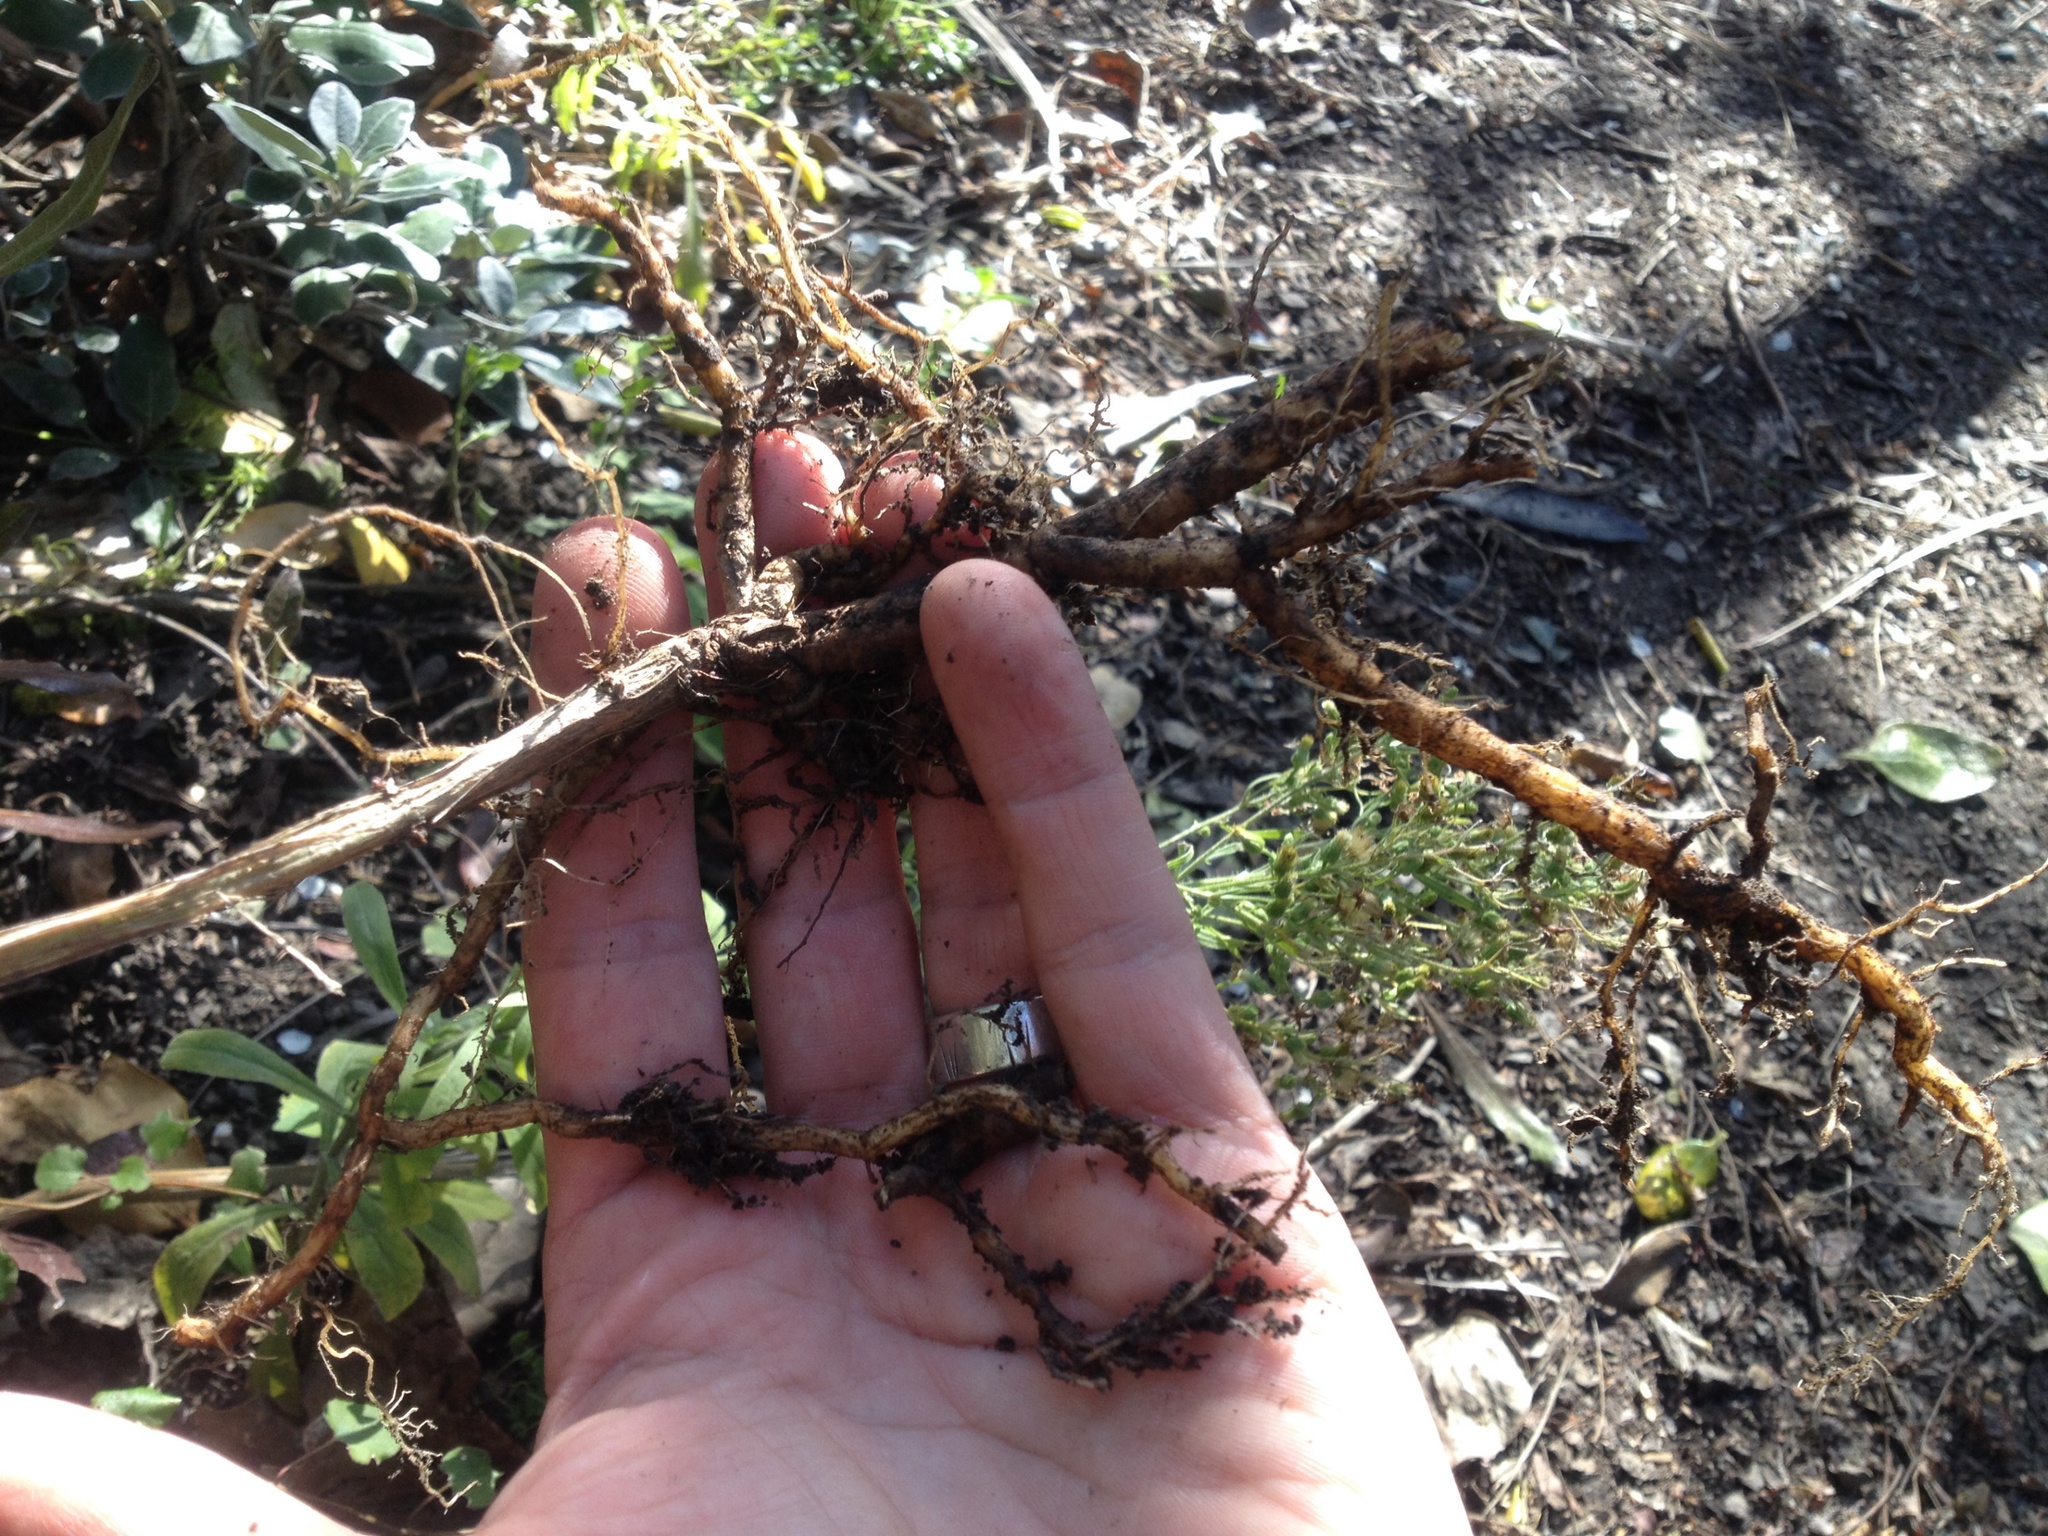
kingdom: Plantae
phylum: Tracheophyta
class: Magnoliopsida
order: Lamiales
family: Bignoniaceae
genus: Eccremocarpus
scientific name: Eccremocarpus scaber
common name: Chilean glory-flower
